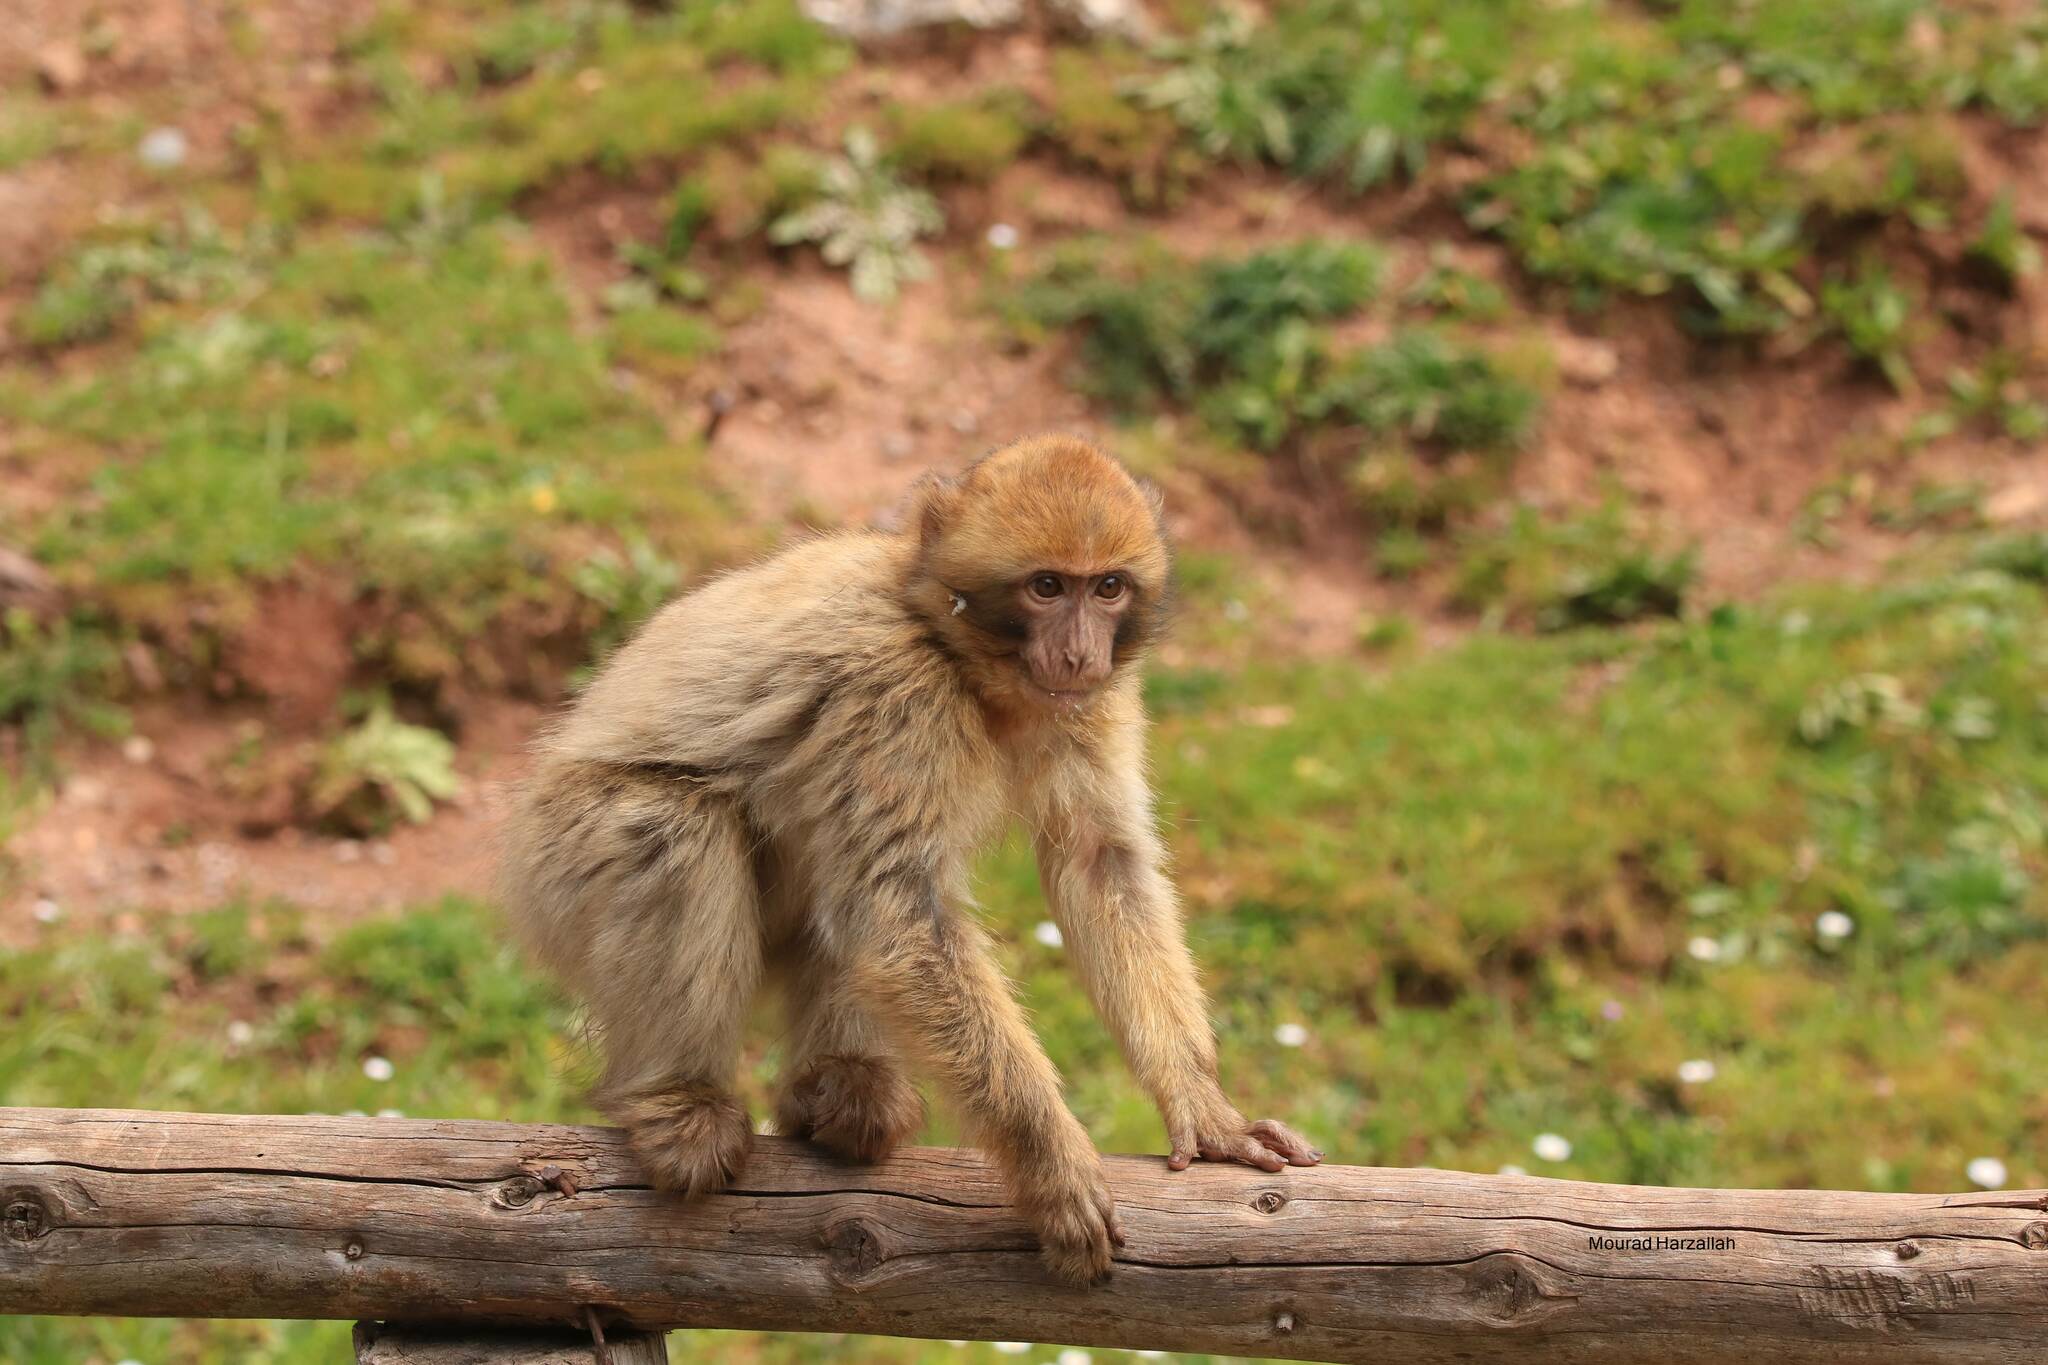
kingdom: Animalia
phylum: Chordata
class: Mammalia
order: Primates
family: Cercopithecidae
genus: Macaca
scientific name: Macaca sylvanus
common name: Barbary macaque
